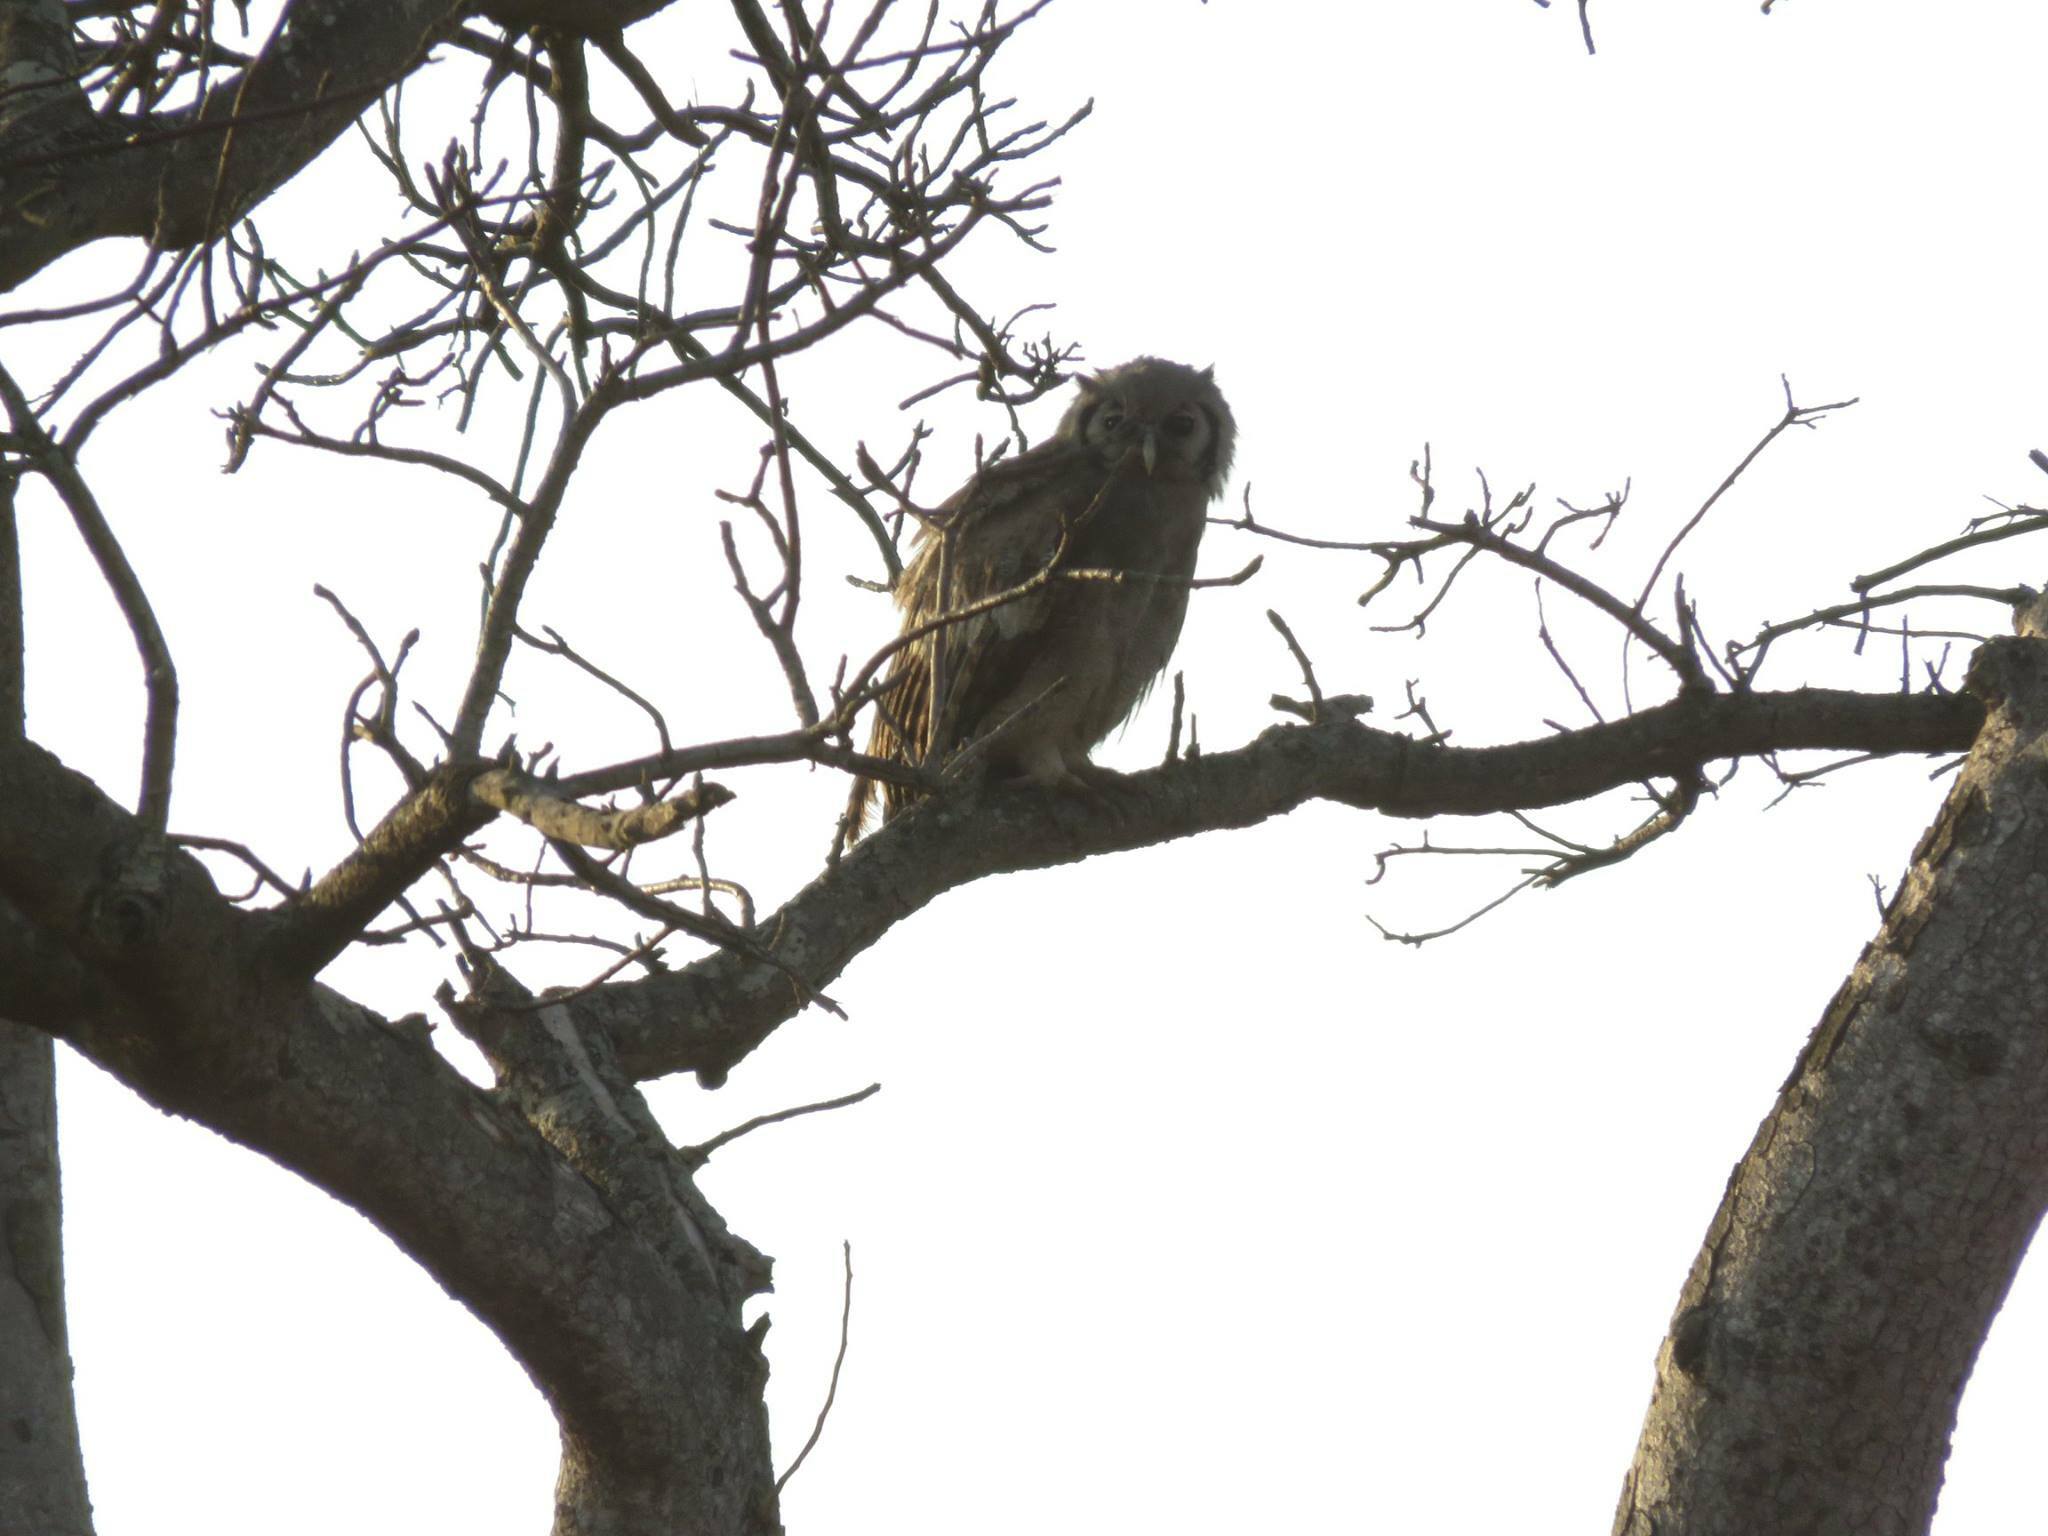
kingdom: Animalia
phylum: Chordata
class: Aves
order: Strigiformes
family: Strigidae
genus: Bubo
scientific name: Bubo lacteus
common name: Verreaux's eagle-owl
